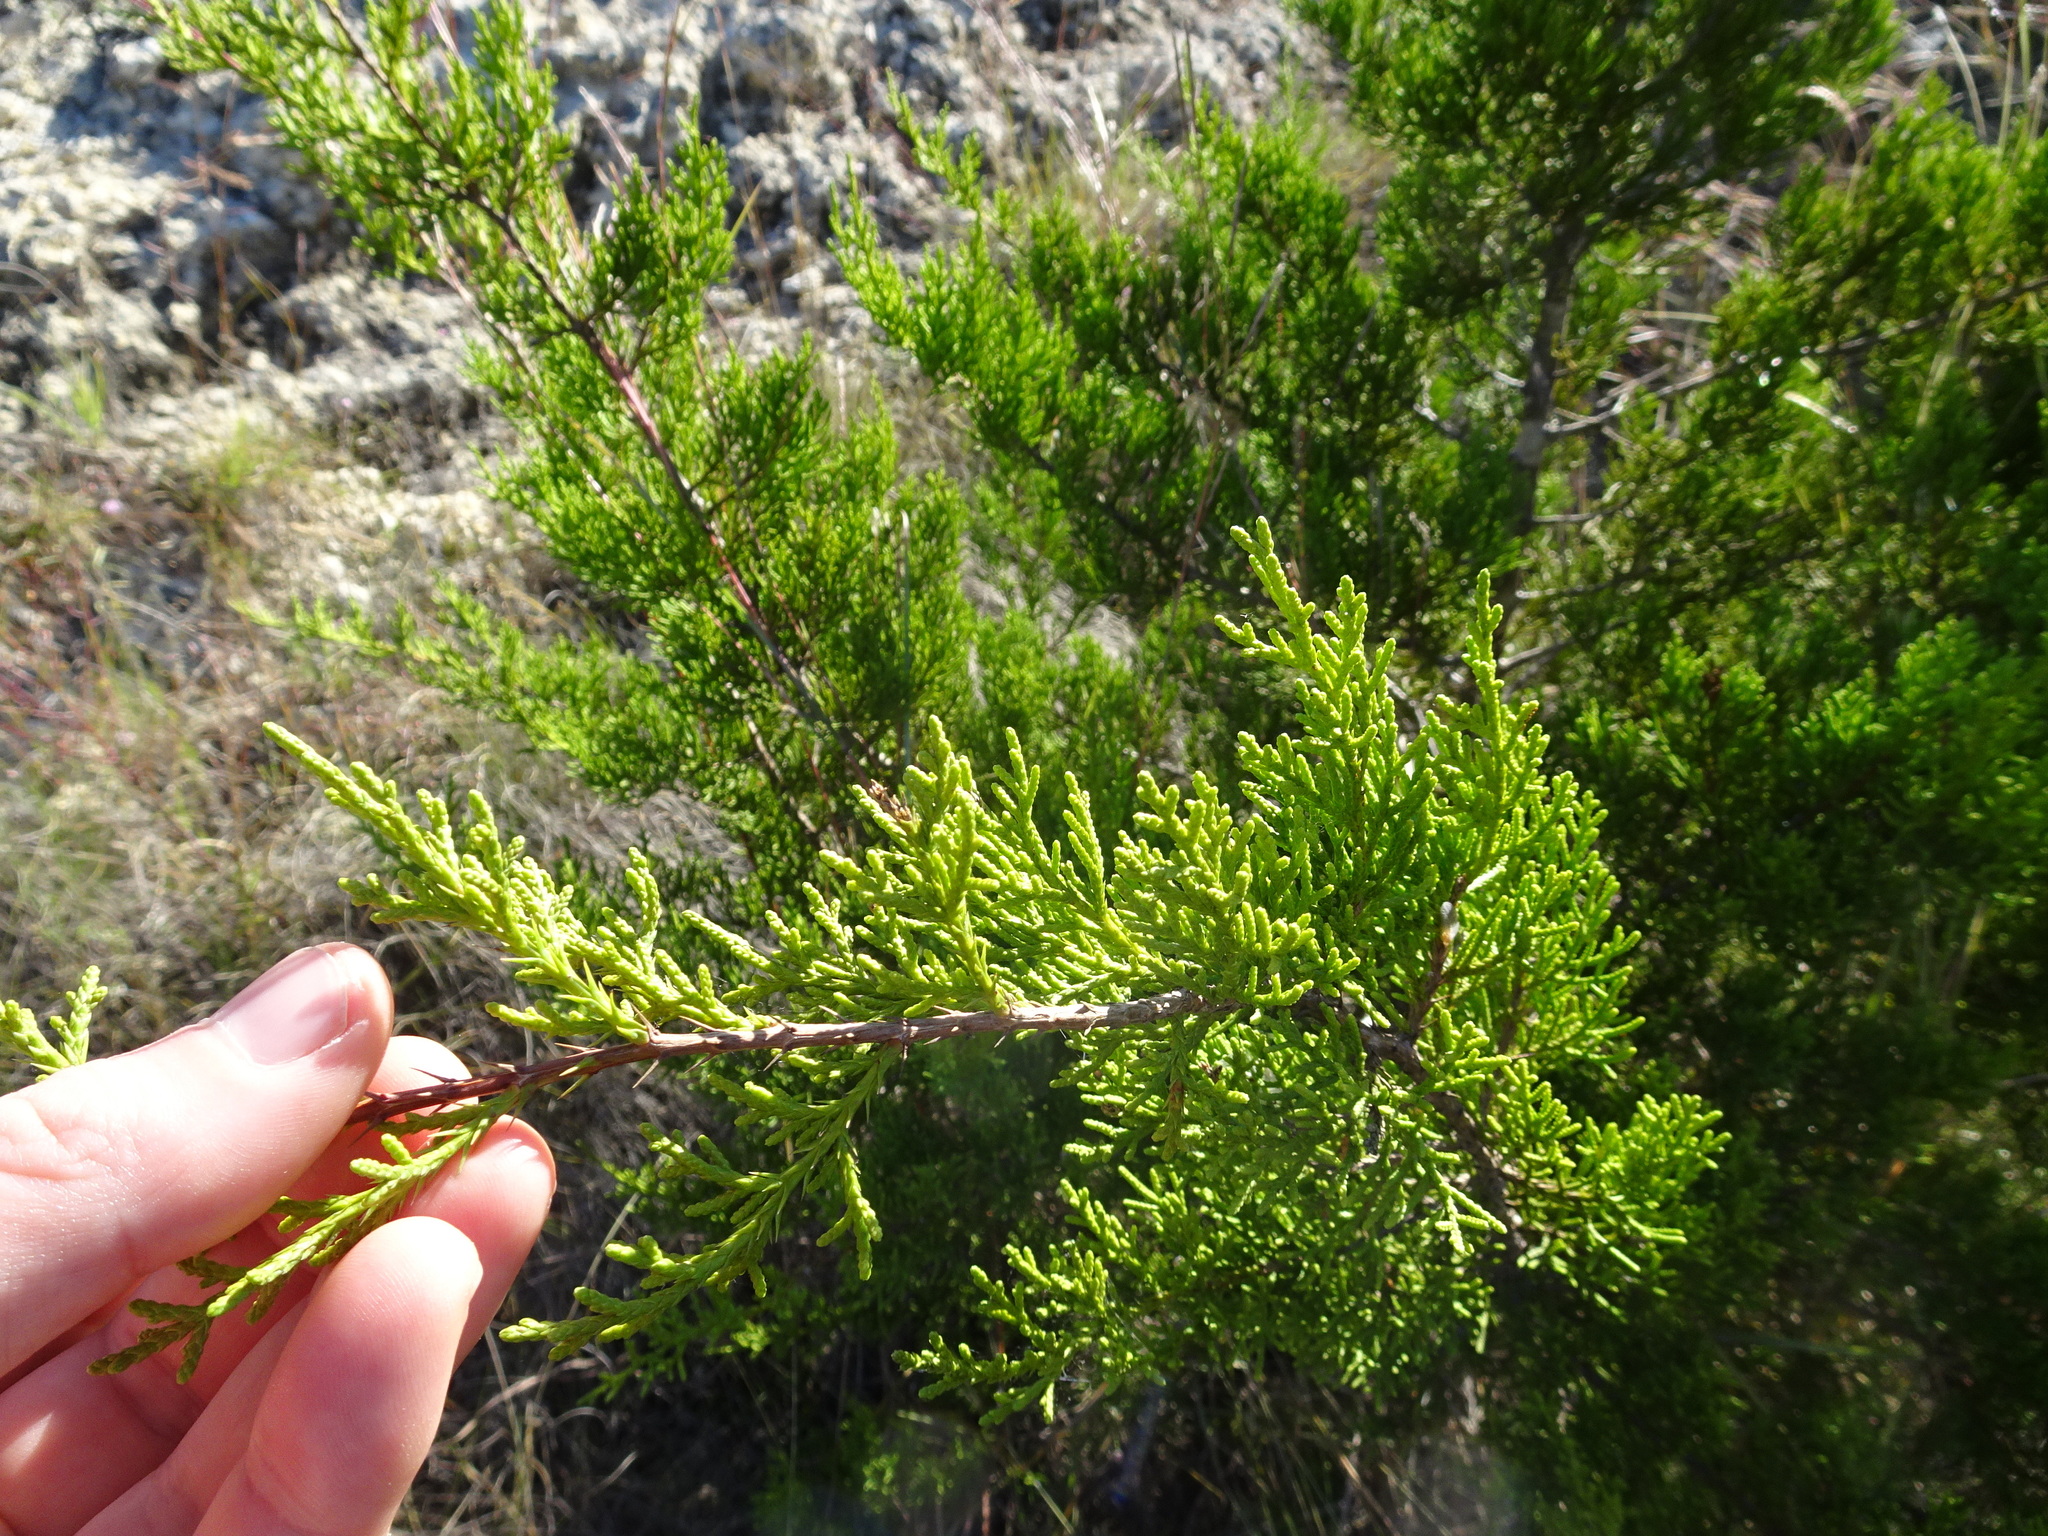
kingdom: Plantae
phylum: Tracheophyta
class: Pinopsida
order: Pinales
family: Cupressaceae
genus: Juniperus
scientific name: Juniperus ashei
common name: Mexican juniper
